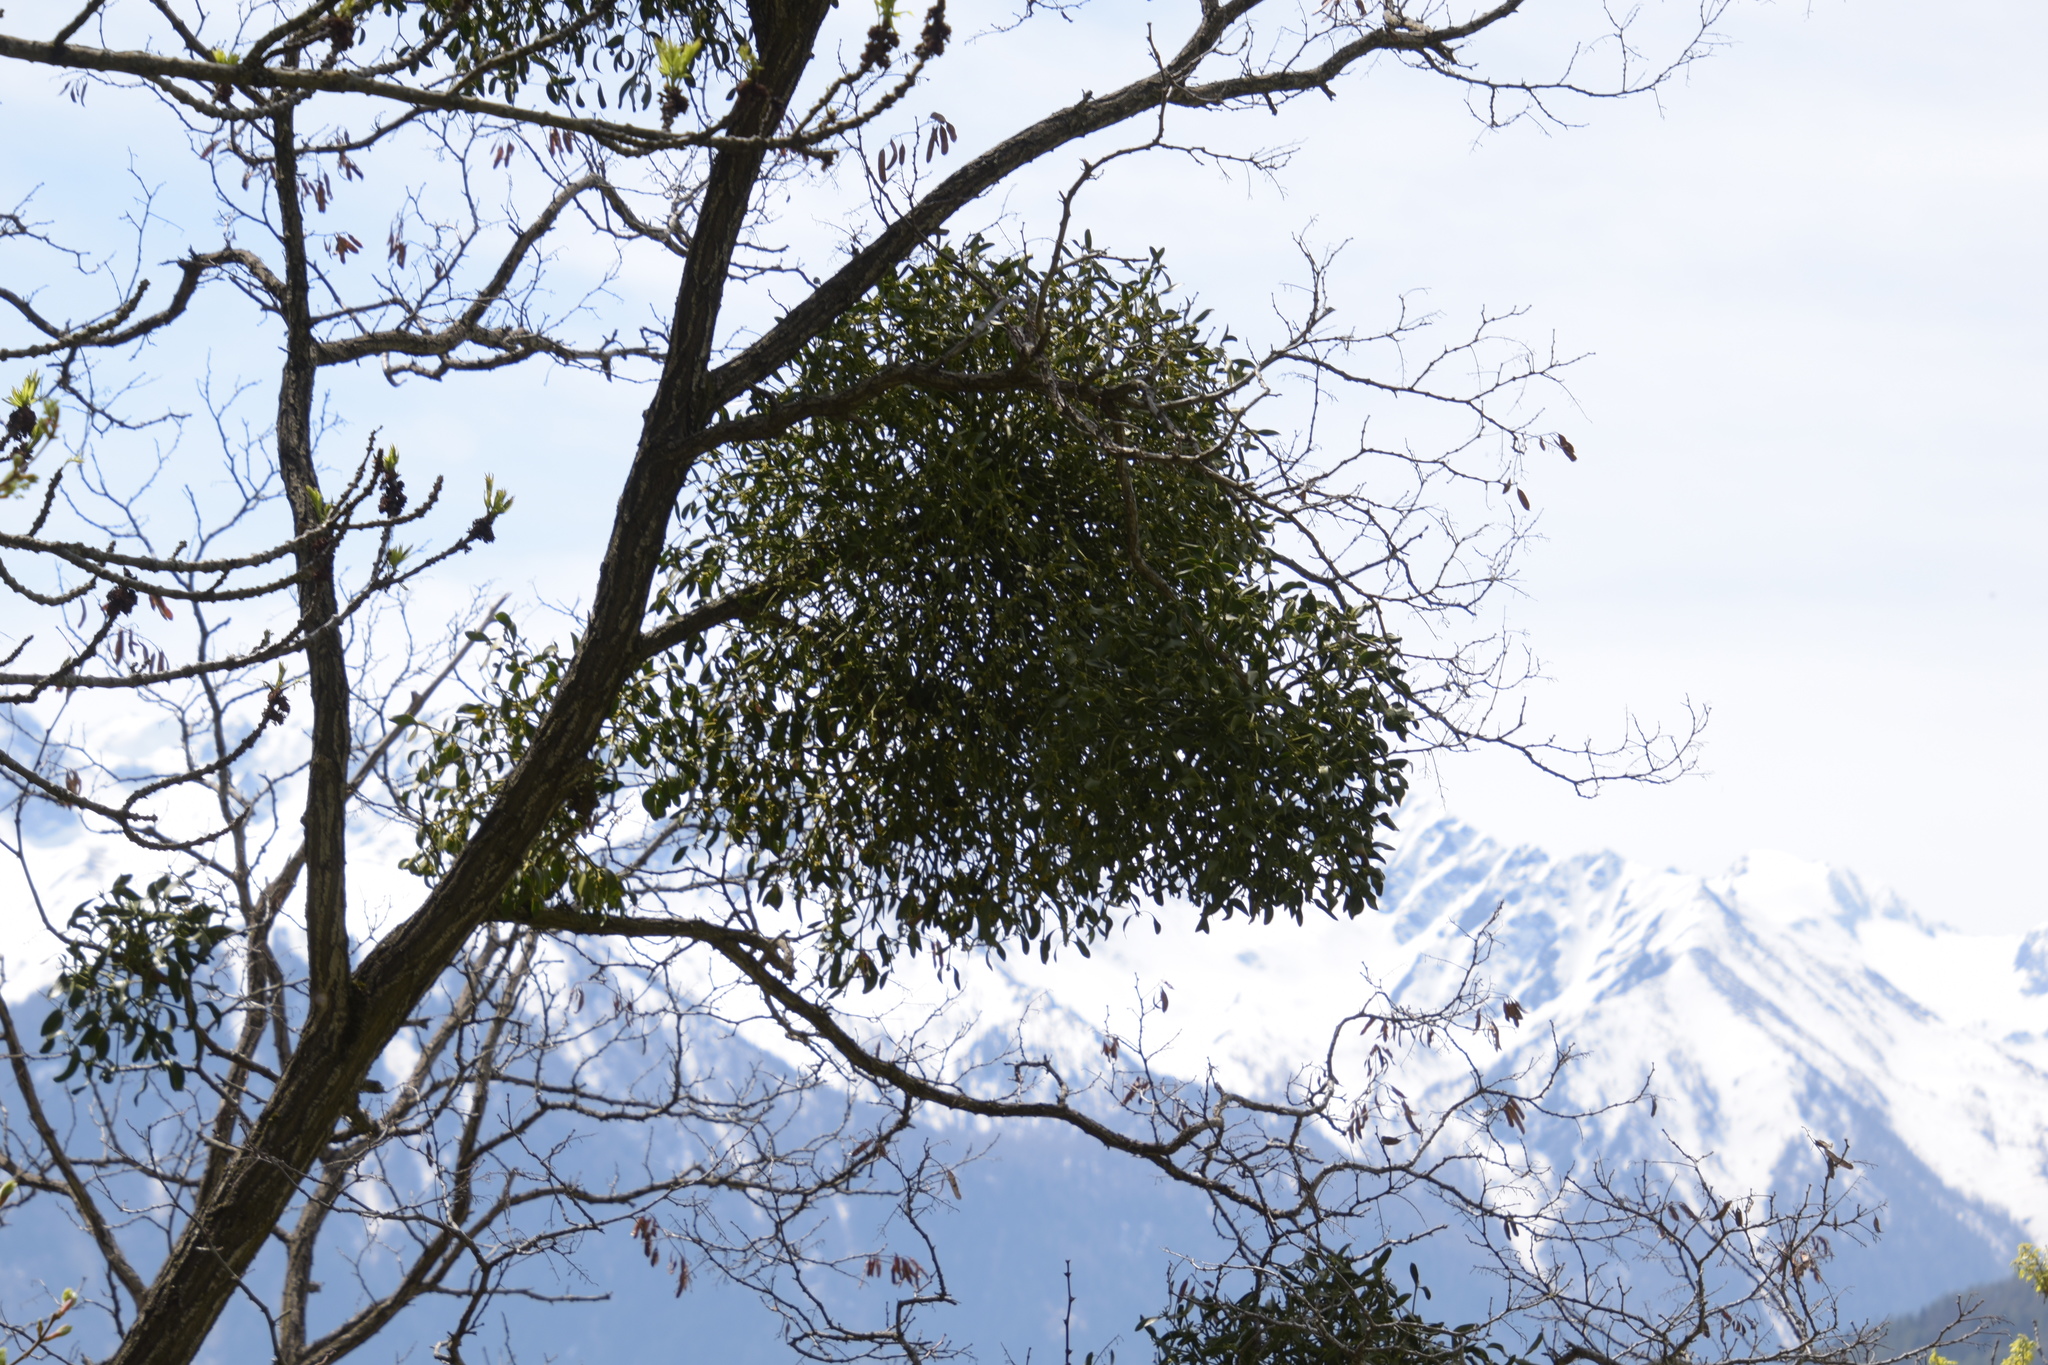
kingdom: Plantae
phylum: Tracheophyta
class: Magnoliopsida
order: Santalales
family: Viscaceae
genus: Viscum
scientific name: Viscum album
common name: Mistletoe
